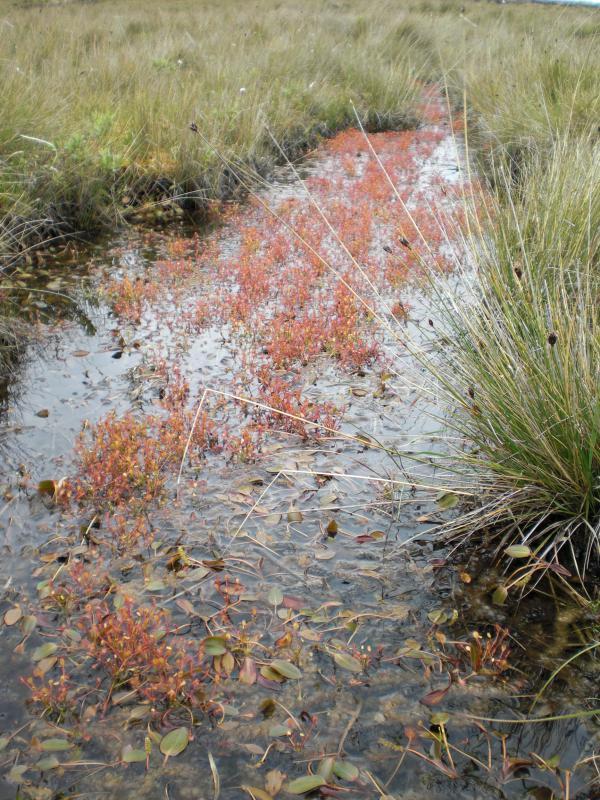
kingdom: Plantae
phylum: Tracheophyta
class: Magnoliopsida
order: Caryophyllales
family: Droseraceae
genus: Drosera
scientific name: Drosera intermedia
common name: Oblong-leaved sundew
